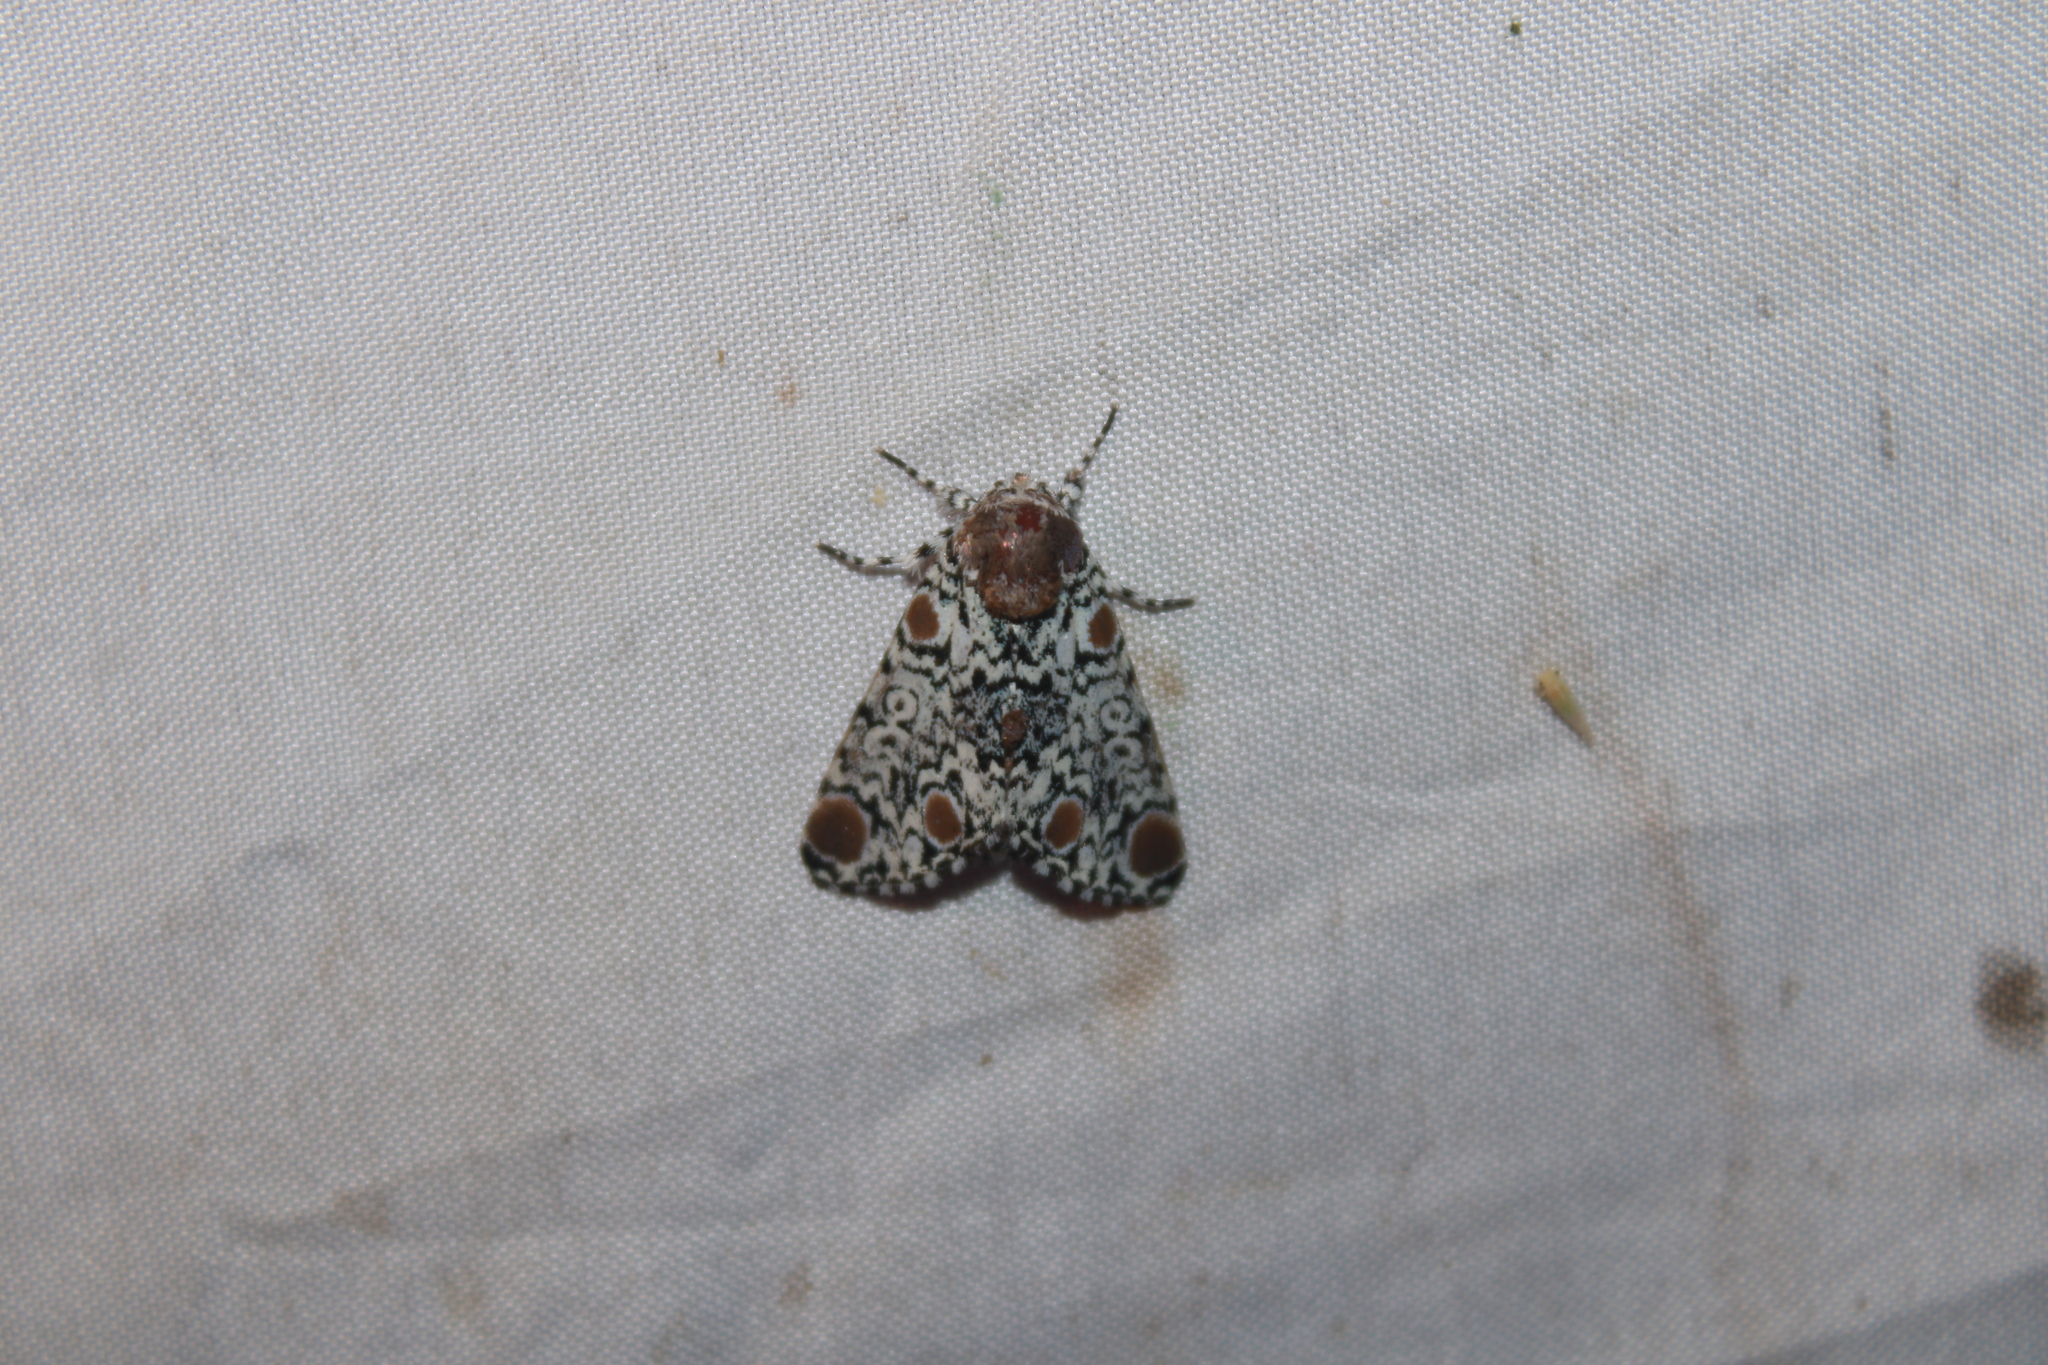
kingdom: Animalia
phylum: Arthropoda
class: Insecta
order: Lepidoptera
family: Noctuidae
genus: Harrisimemna
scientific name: Harrisimemna trisignata
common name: Harris threespot
